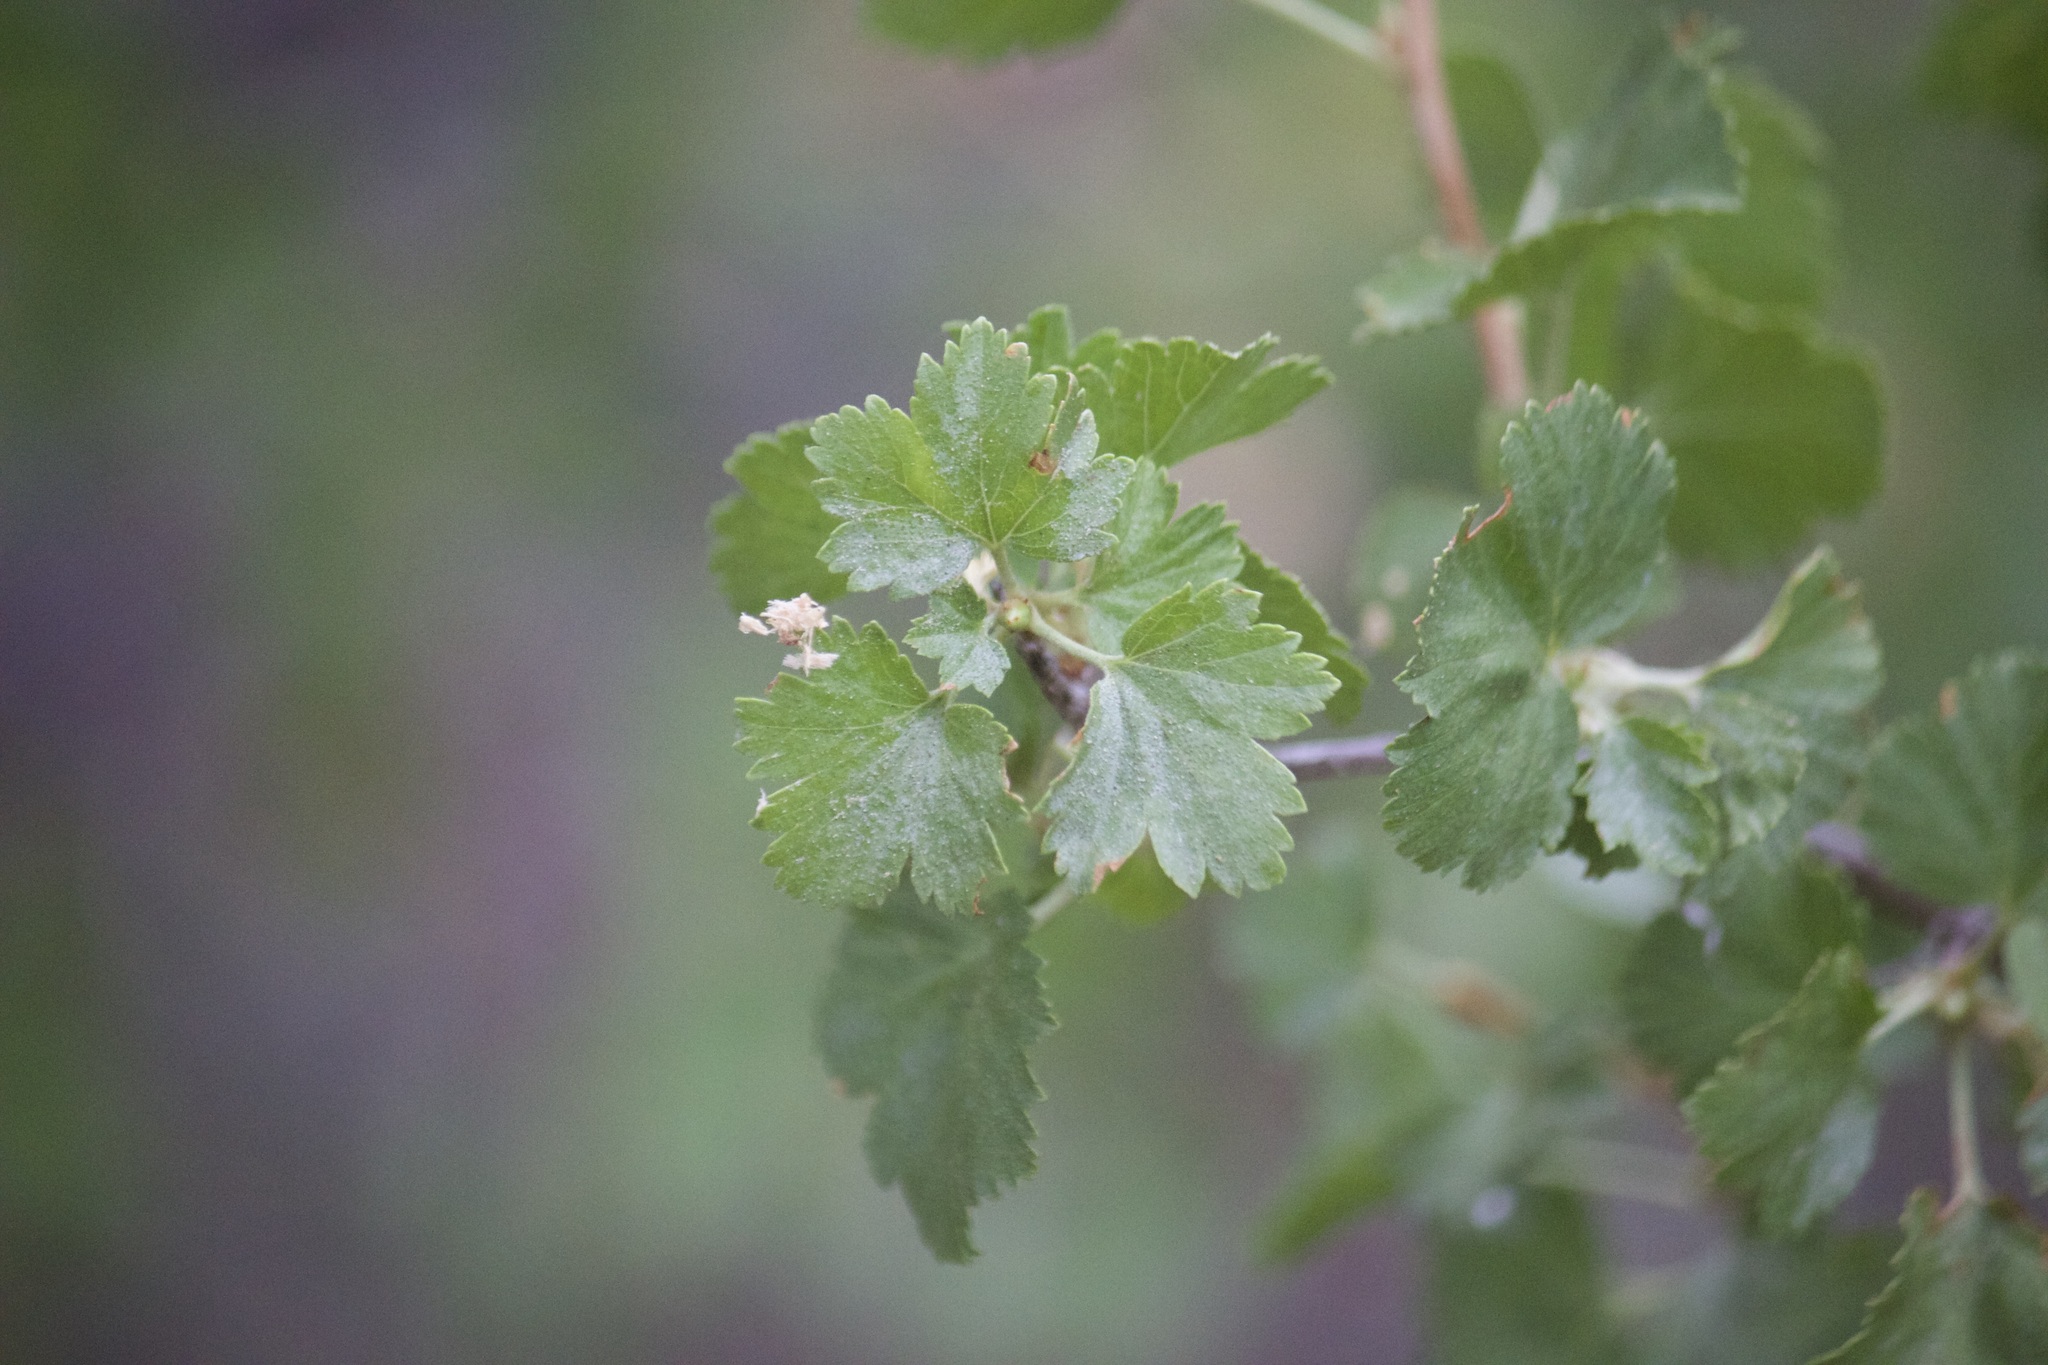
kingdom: Plantae
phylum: Tracheophyta
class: Magnoliopsida
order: Saxifragales
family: Grossulariaceae
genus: Ribes
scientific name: Ribes cereum
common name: Wax currant
